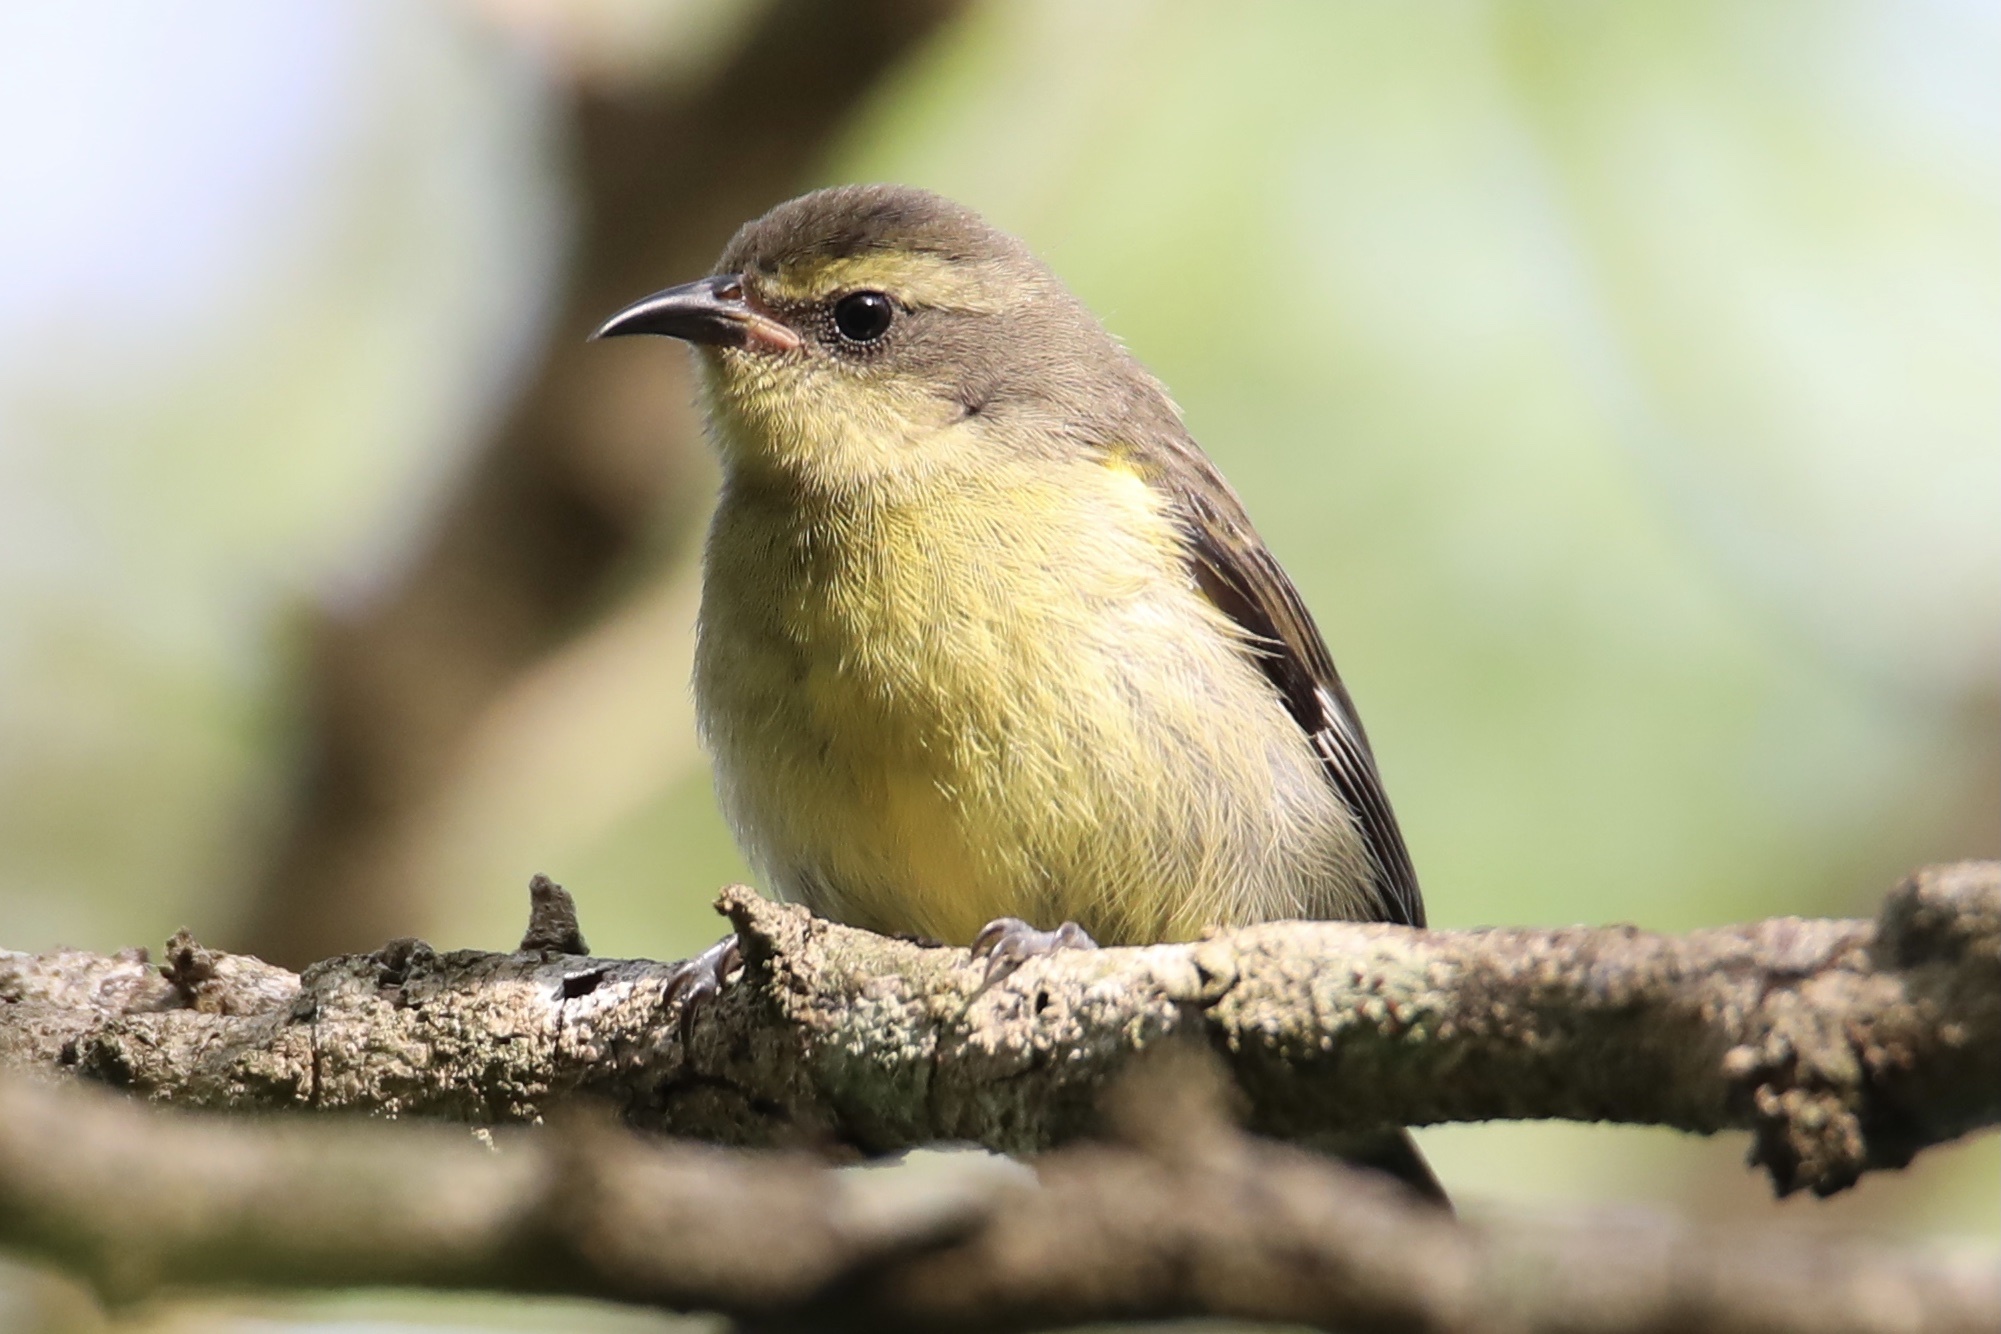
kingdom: Animalia
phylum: Chordata
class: Aves
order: Passeriformes
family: Thraupidae
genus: Coereba
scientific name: Coereba flaveola
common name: Bananaquit
